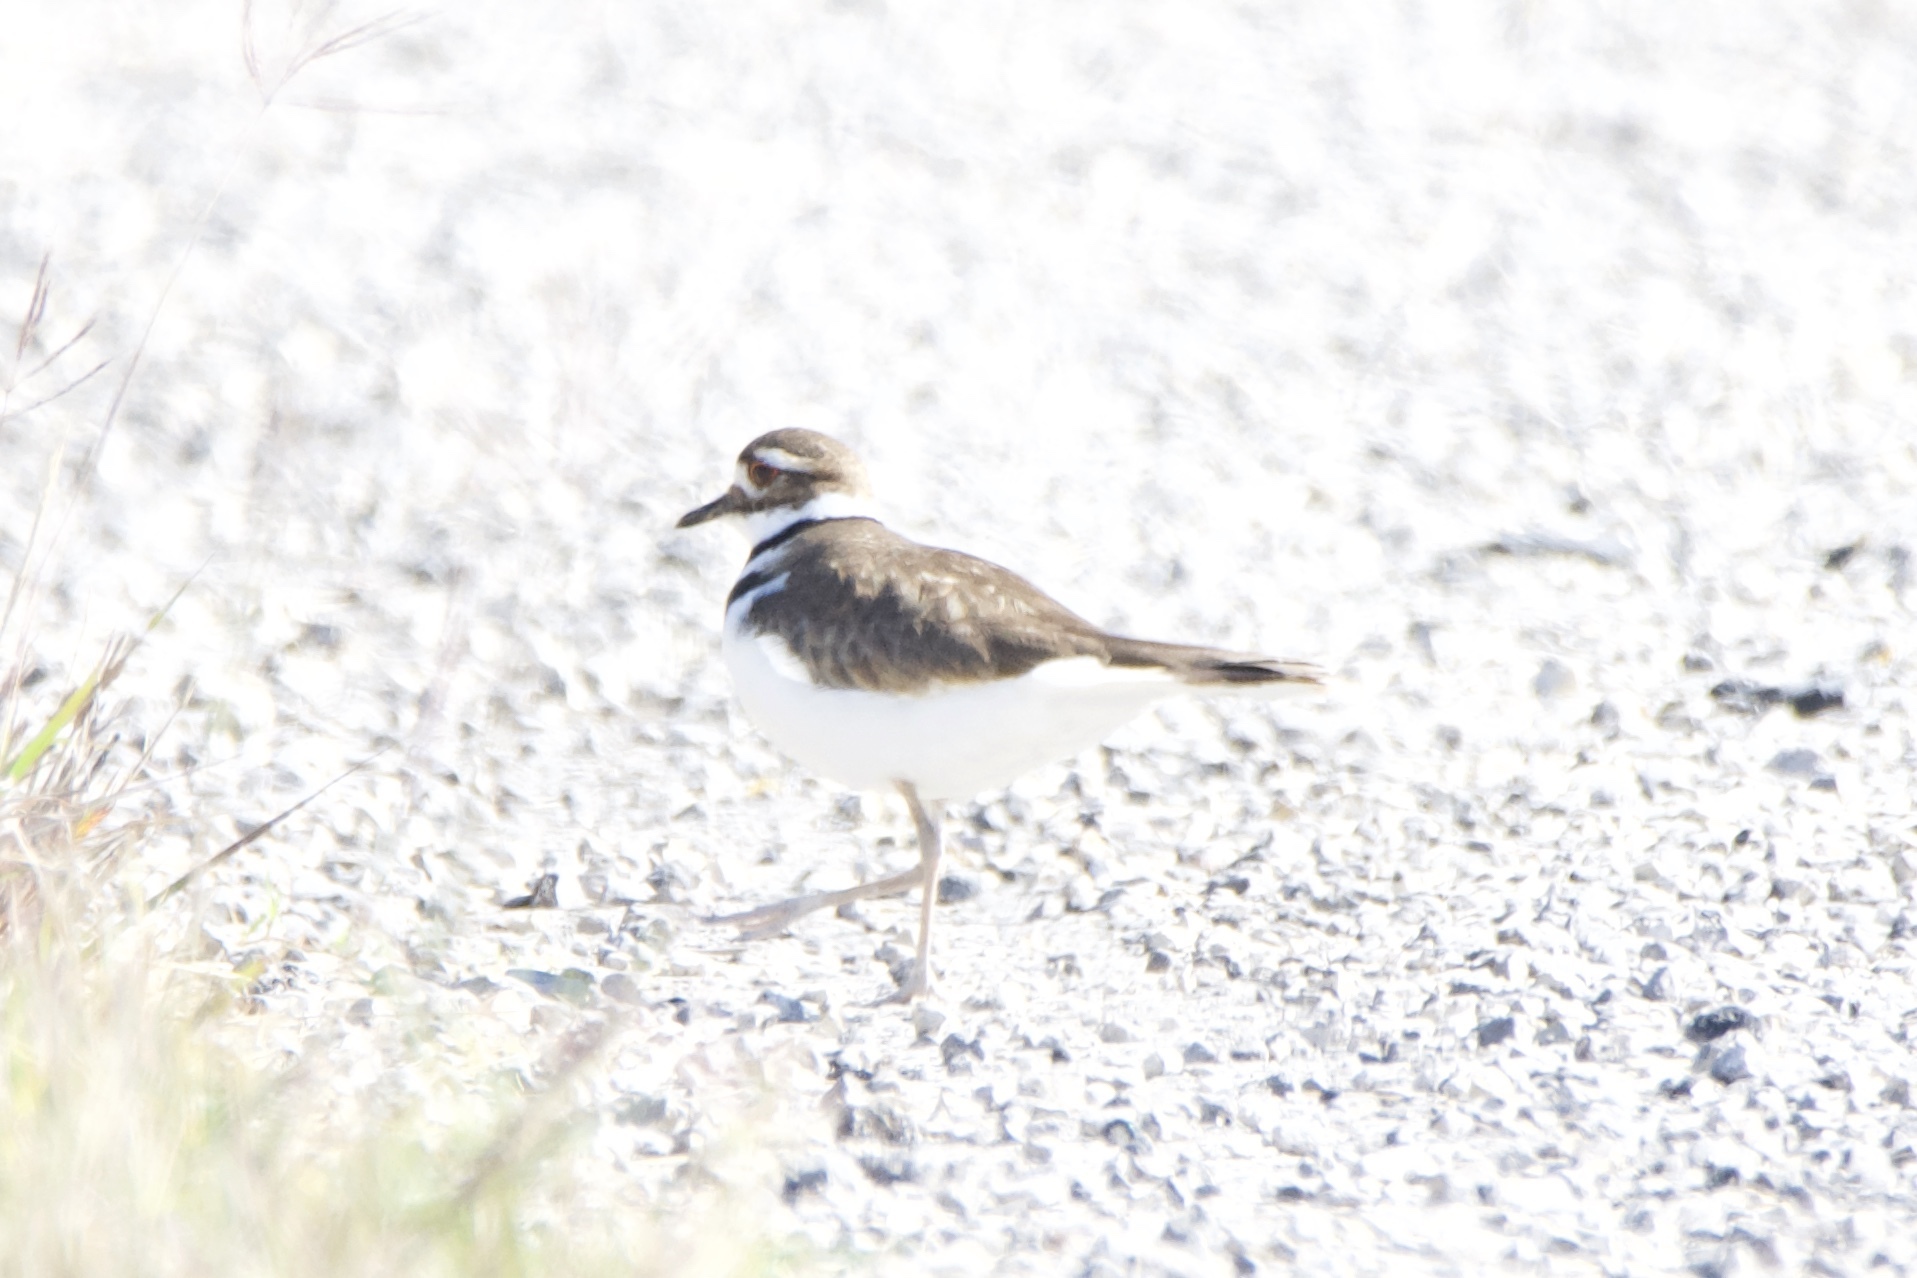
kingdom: Animalia
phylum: Chordata
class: Aves
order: Charadriiformes
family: Charadriidae
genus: Charadrius
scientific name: Charadrius vociferus
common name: Killdeer
